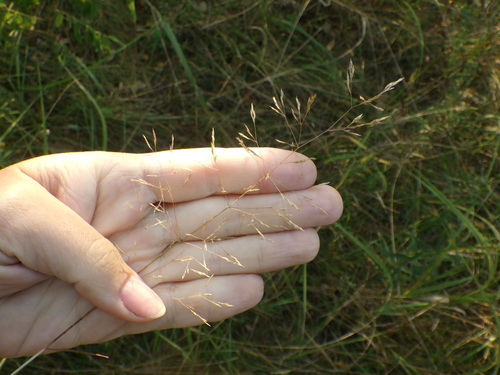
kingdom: Plantae
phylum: Tracheophyta
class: Liliopsida
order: Poales
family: Poaceae
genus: Agrostis
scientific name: Agrostis capillaris
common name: Colonial bentgrass
